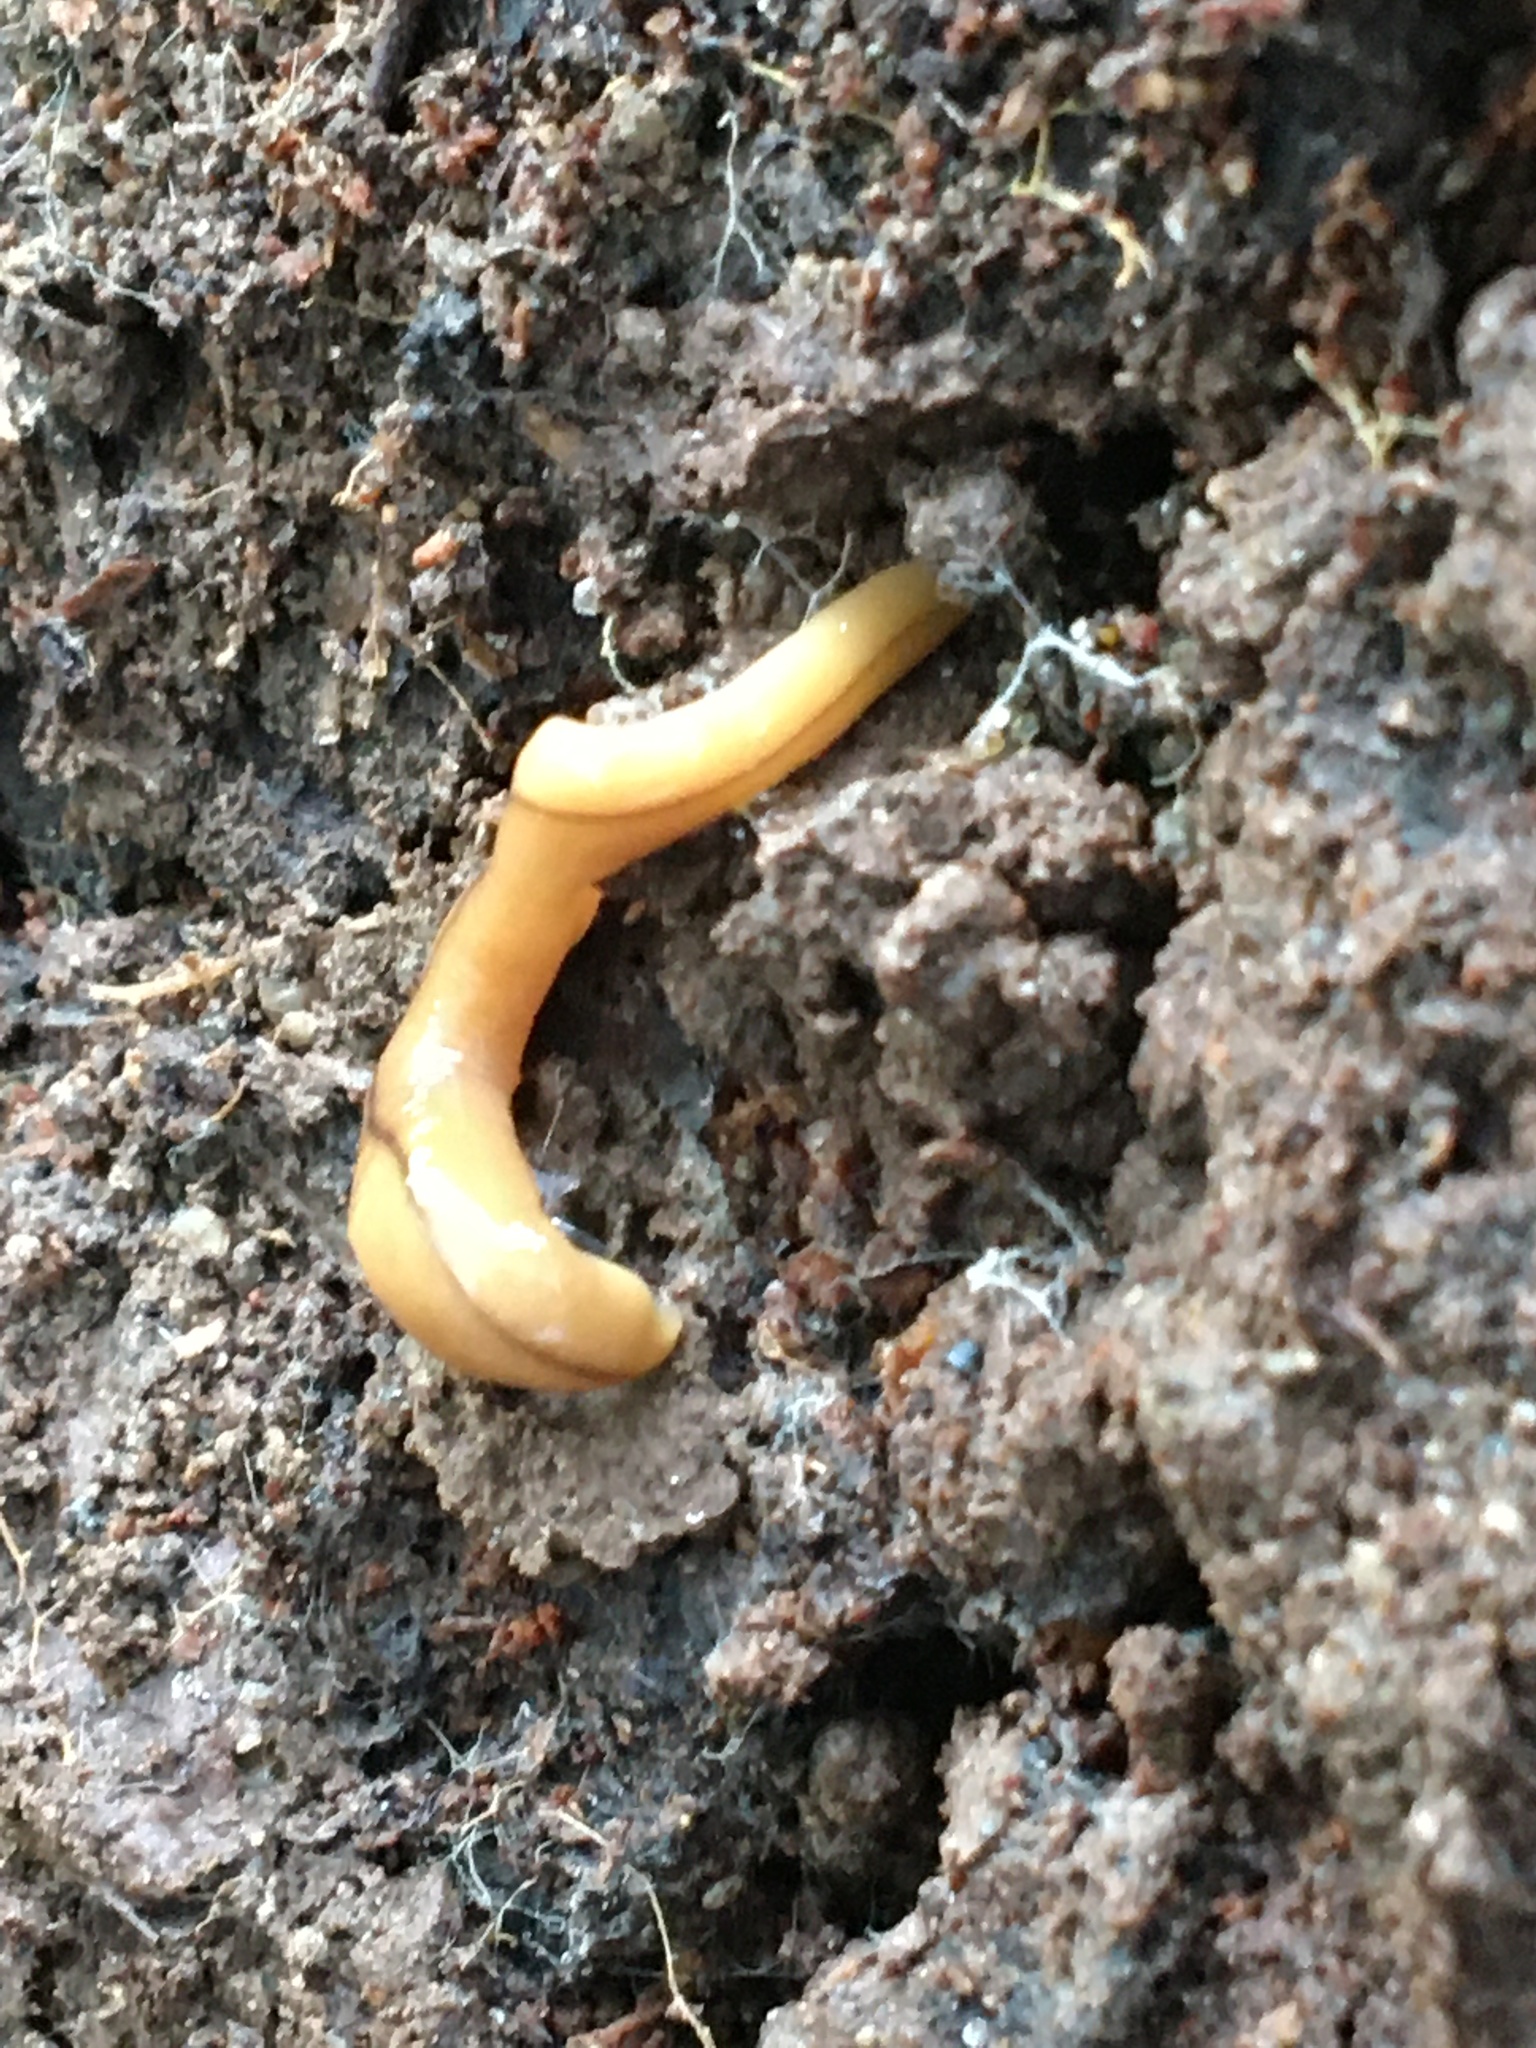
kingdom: Animalia
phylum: Platyhelminthes
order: Tricladida
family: Geoplanidae
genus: Bipalium
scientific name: Bipalium adventitium
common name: Land planarian
